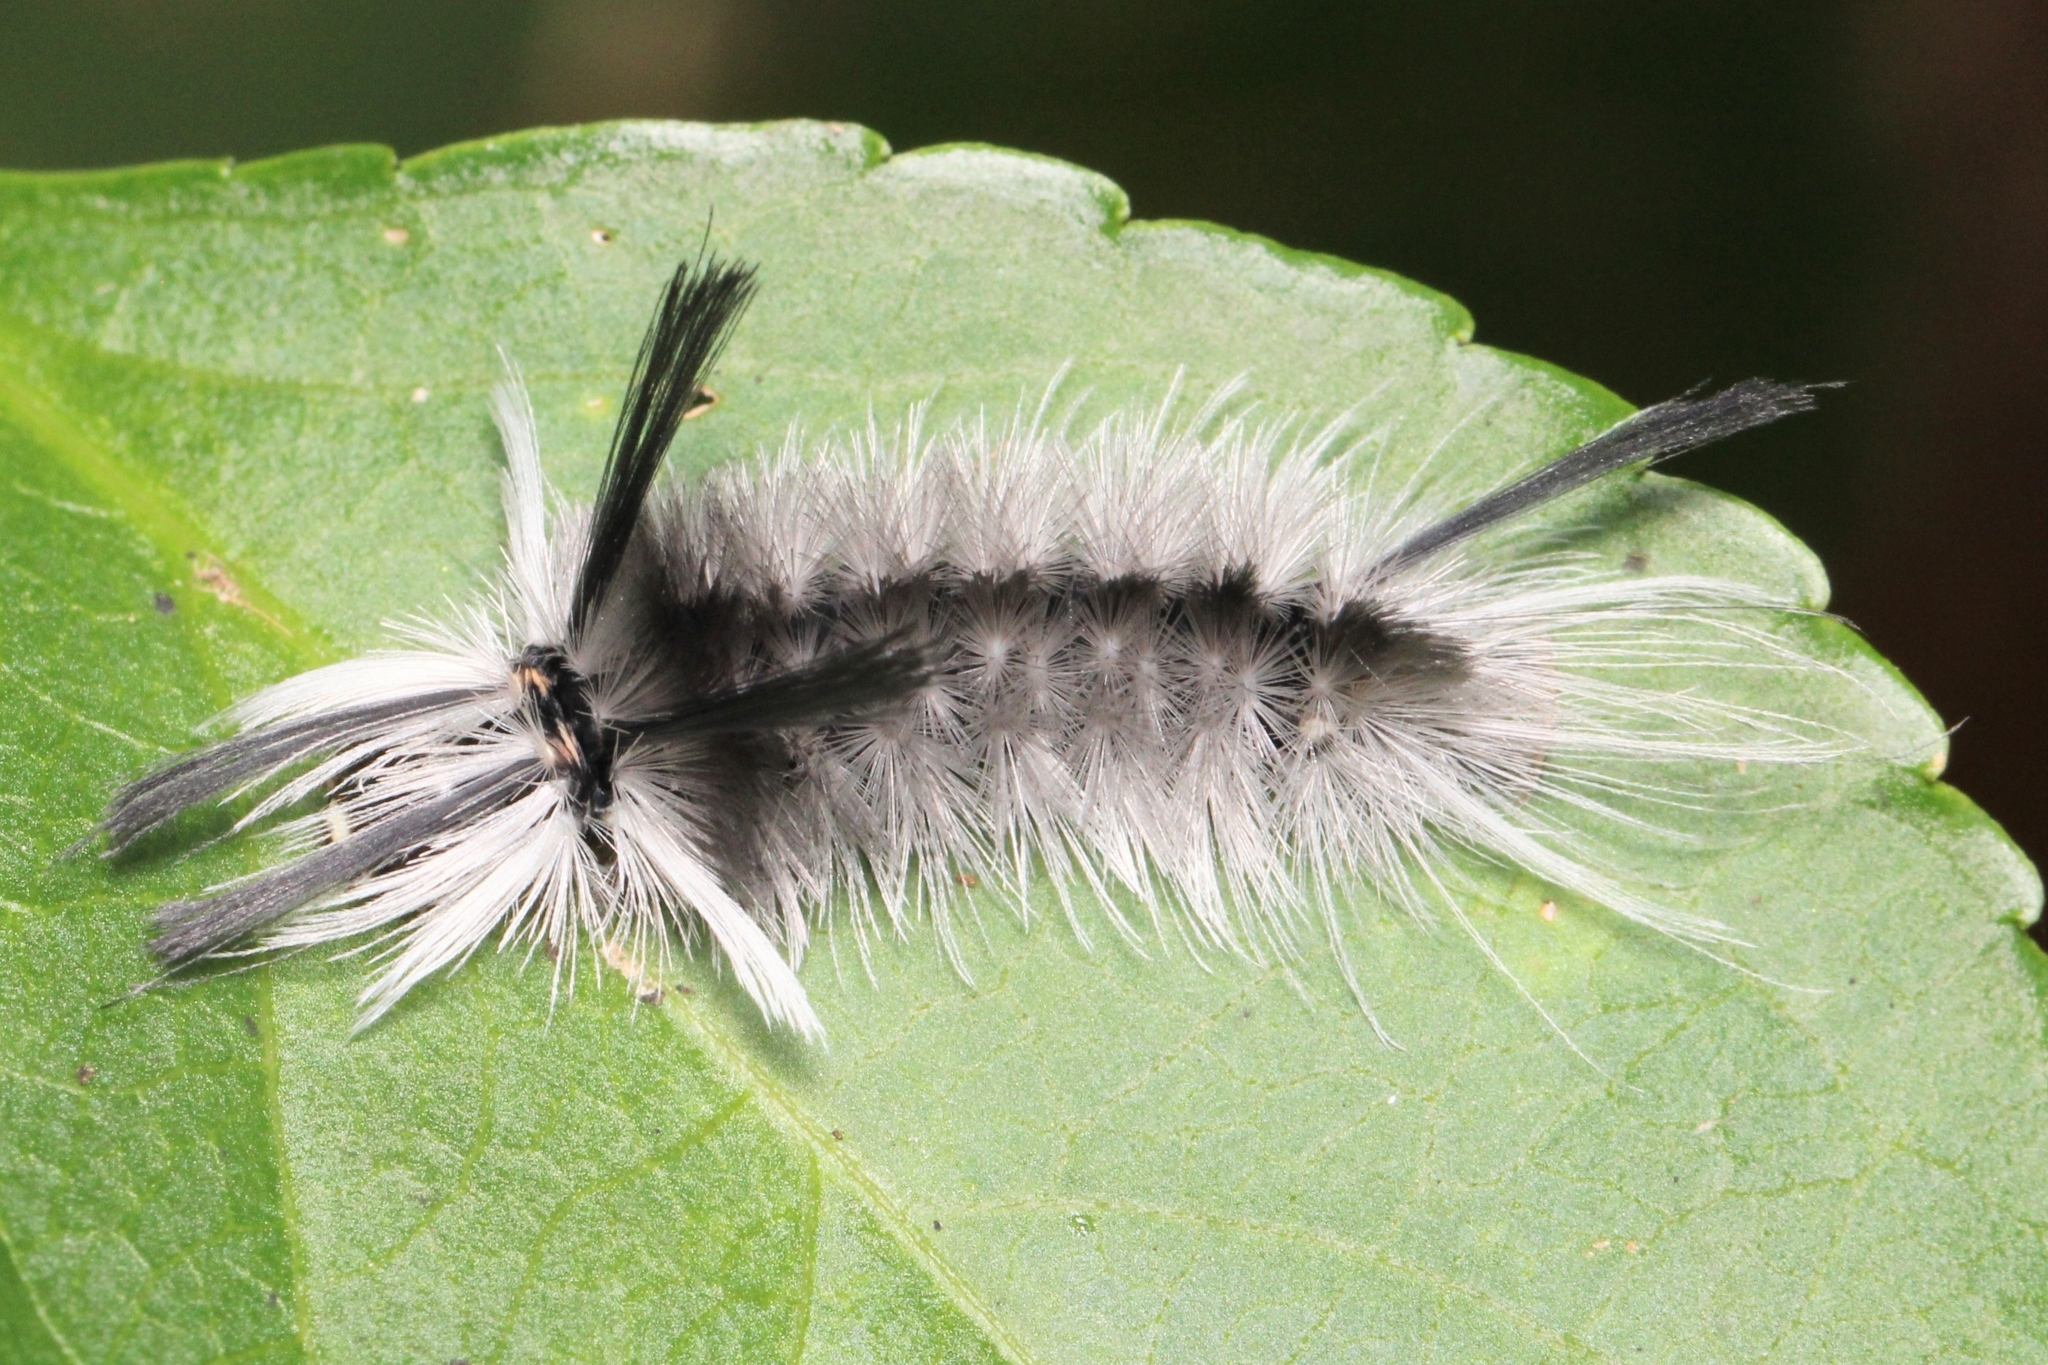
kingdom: Animalia
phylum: Arthropoda
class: Insecta
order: Lepidoptera
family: Erebidae
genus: Halysidota
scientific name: Halysidota tessellaris
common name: Banded tussock moth
